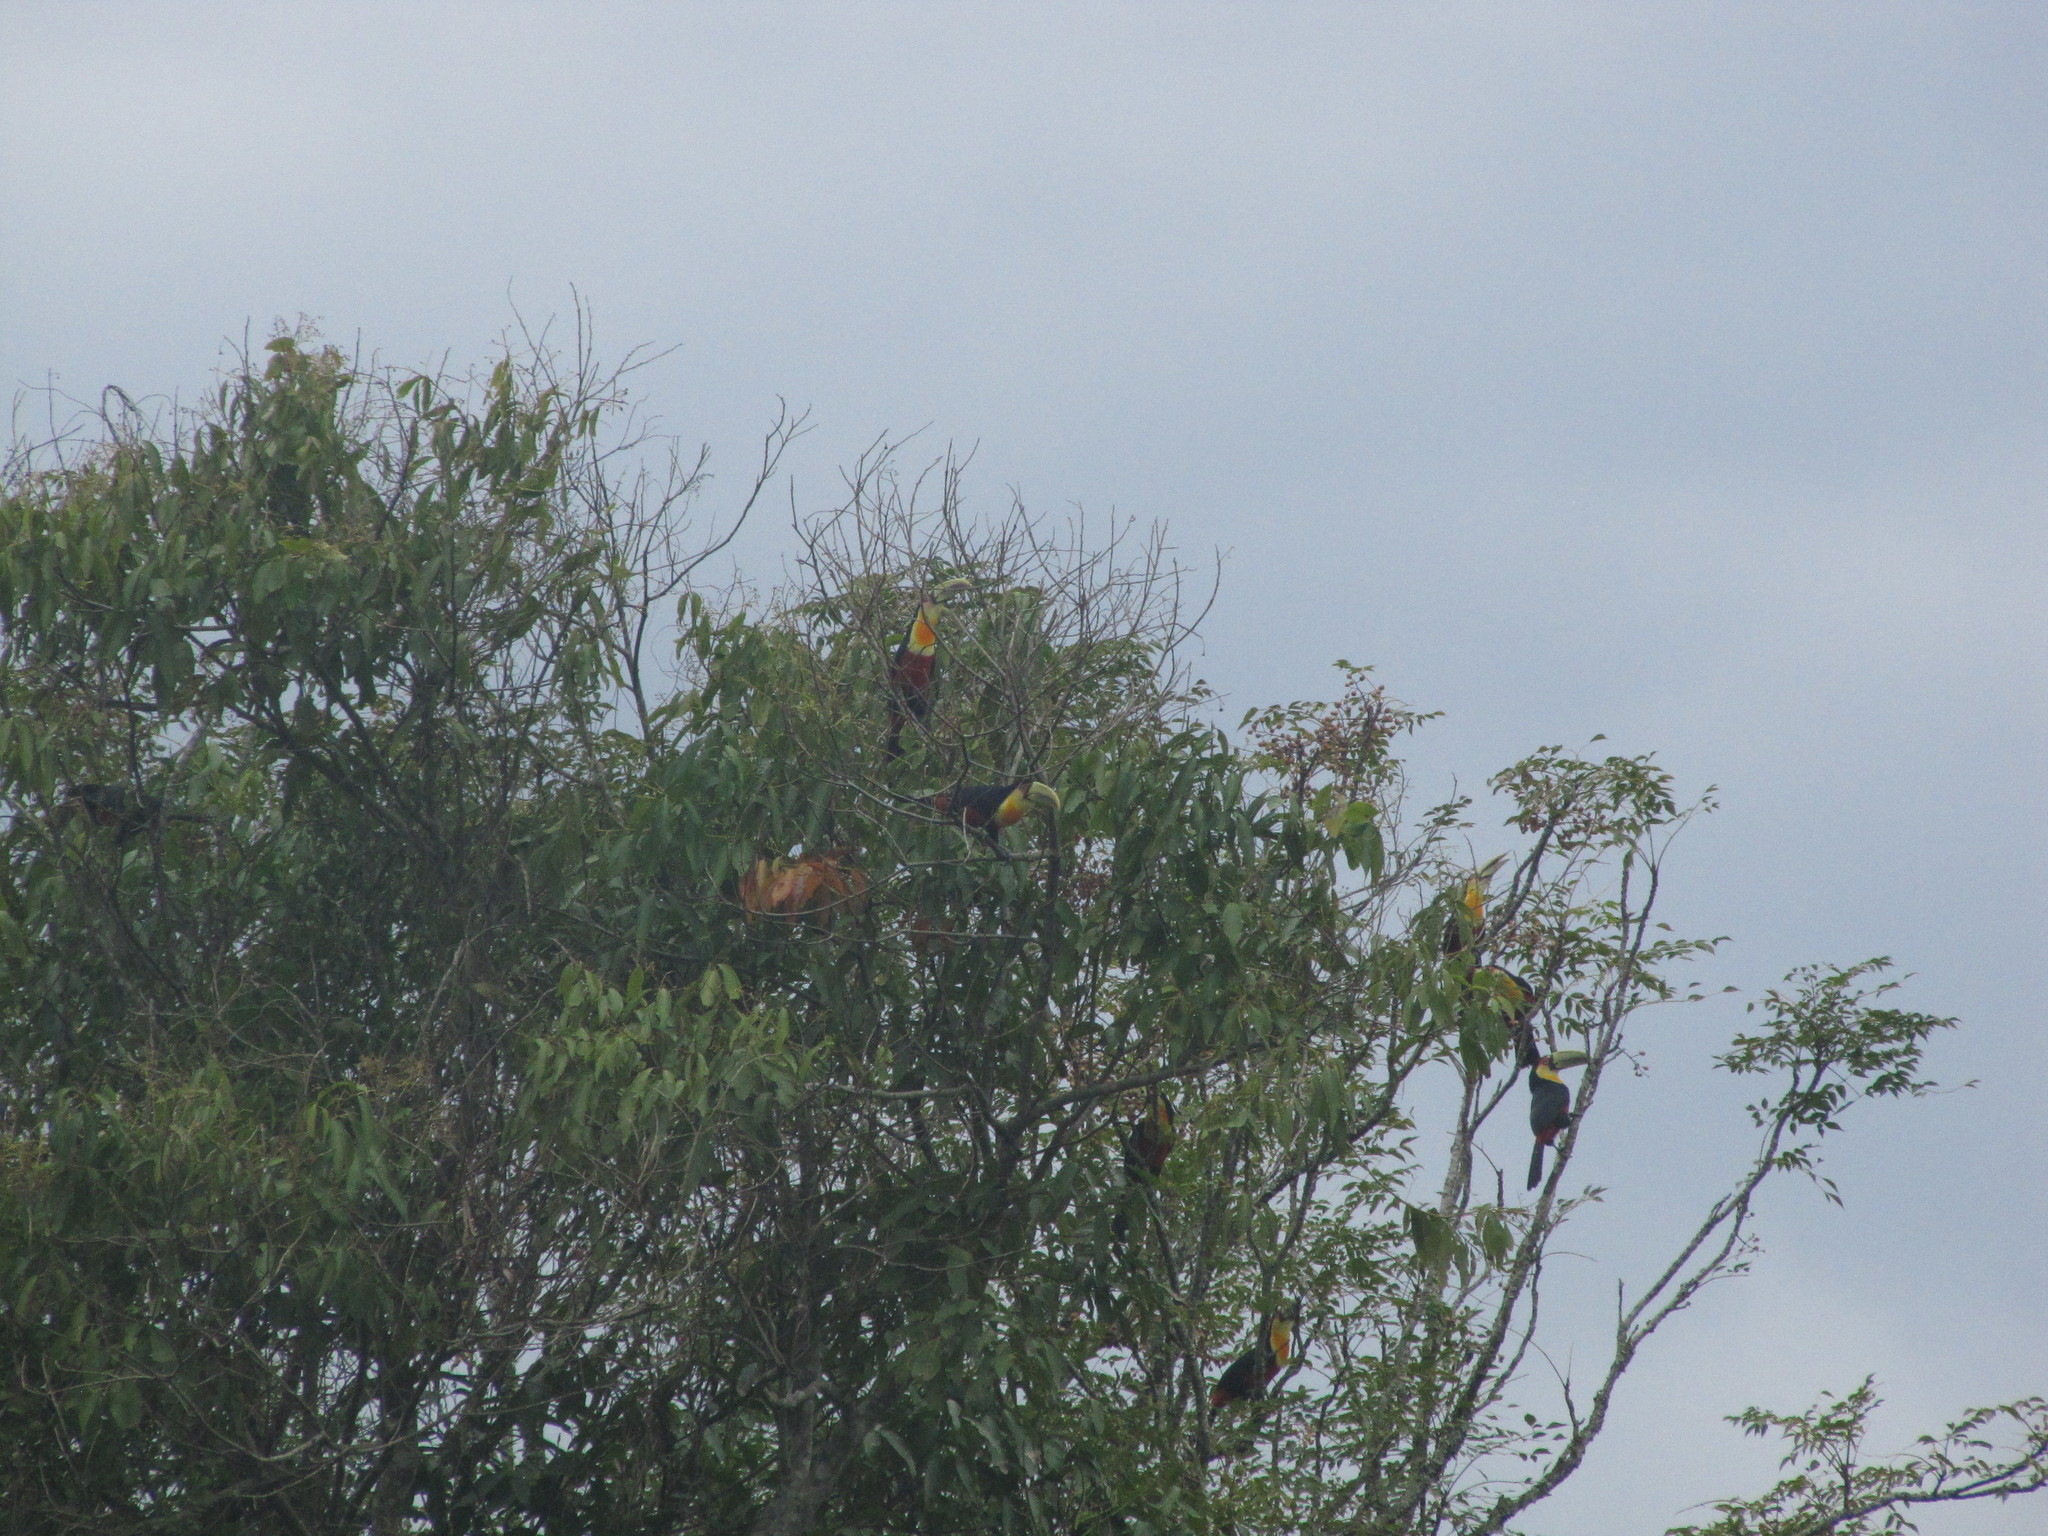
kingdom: Animalia
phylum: Chordata
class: Aves
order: Piciformes
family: Ramphastidae
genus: Ramphastos
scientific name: Ramphastos dicolorus
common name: Green-billed toucan
